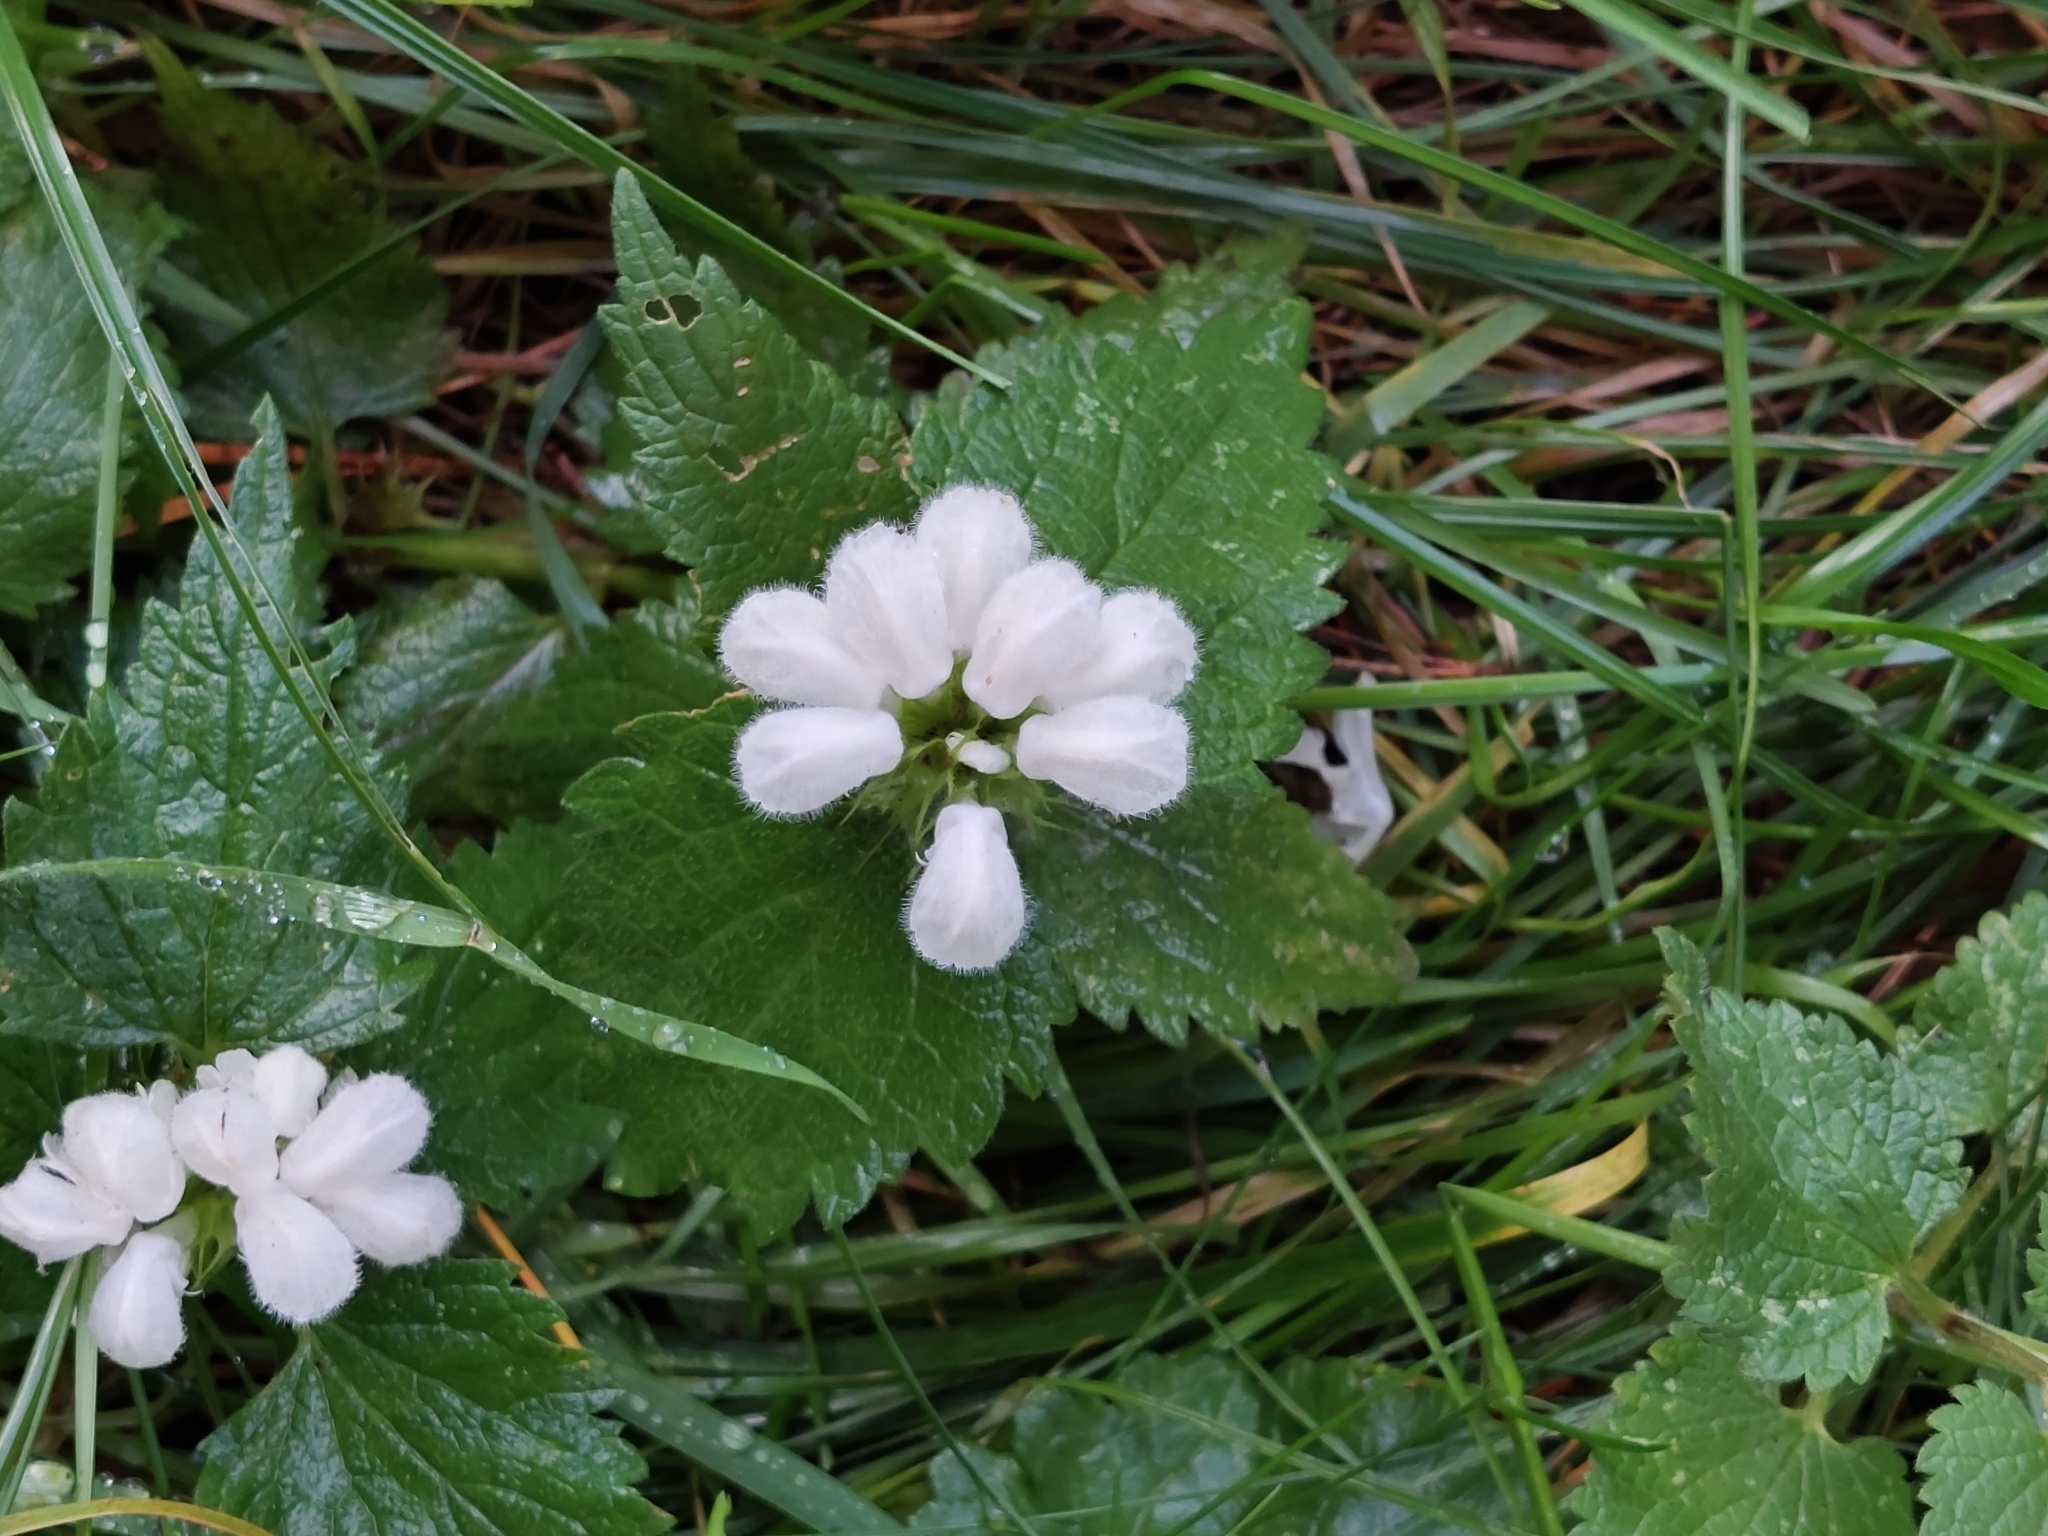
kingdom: Plantae
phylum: Tracheophyta
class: Magnoliopsida
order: Lamiales
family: Lamiaceae
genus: Lamium
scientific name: Lamium album
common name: White dead-nettle
